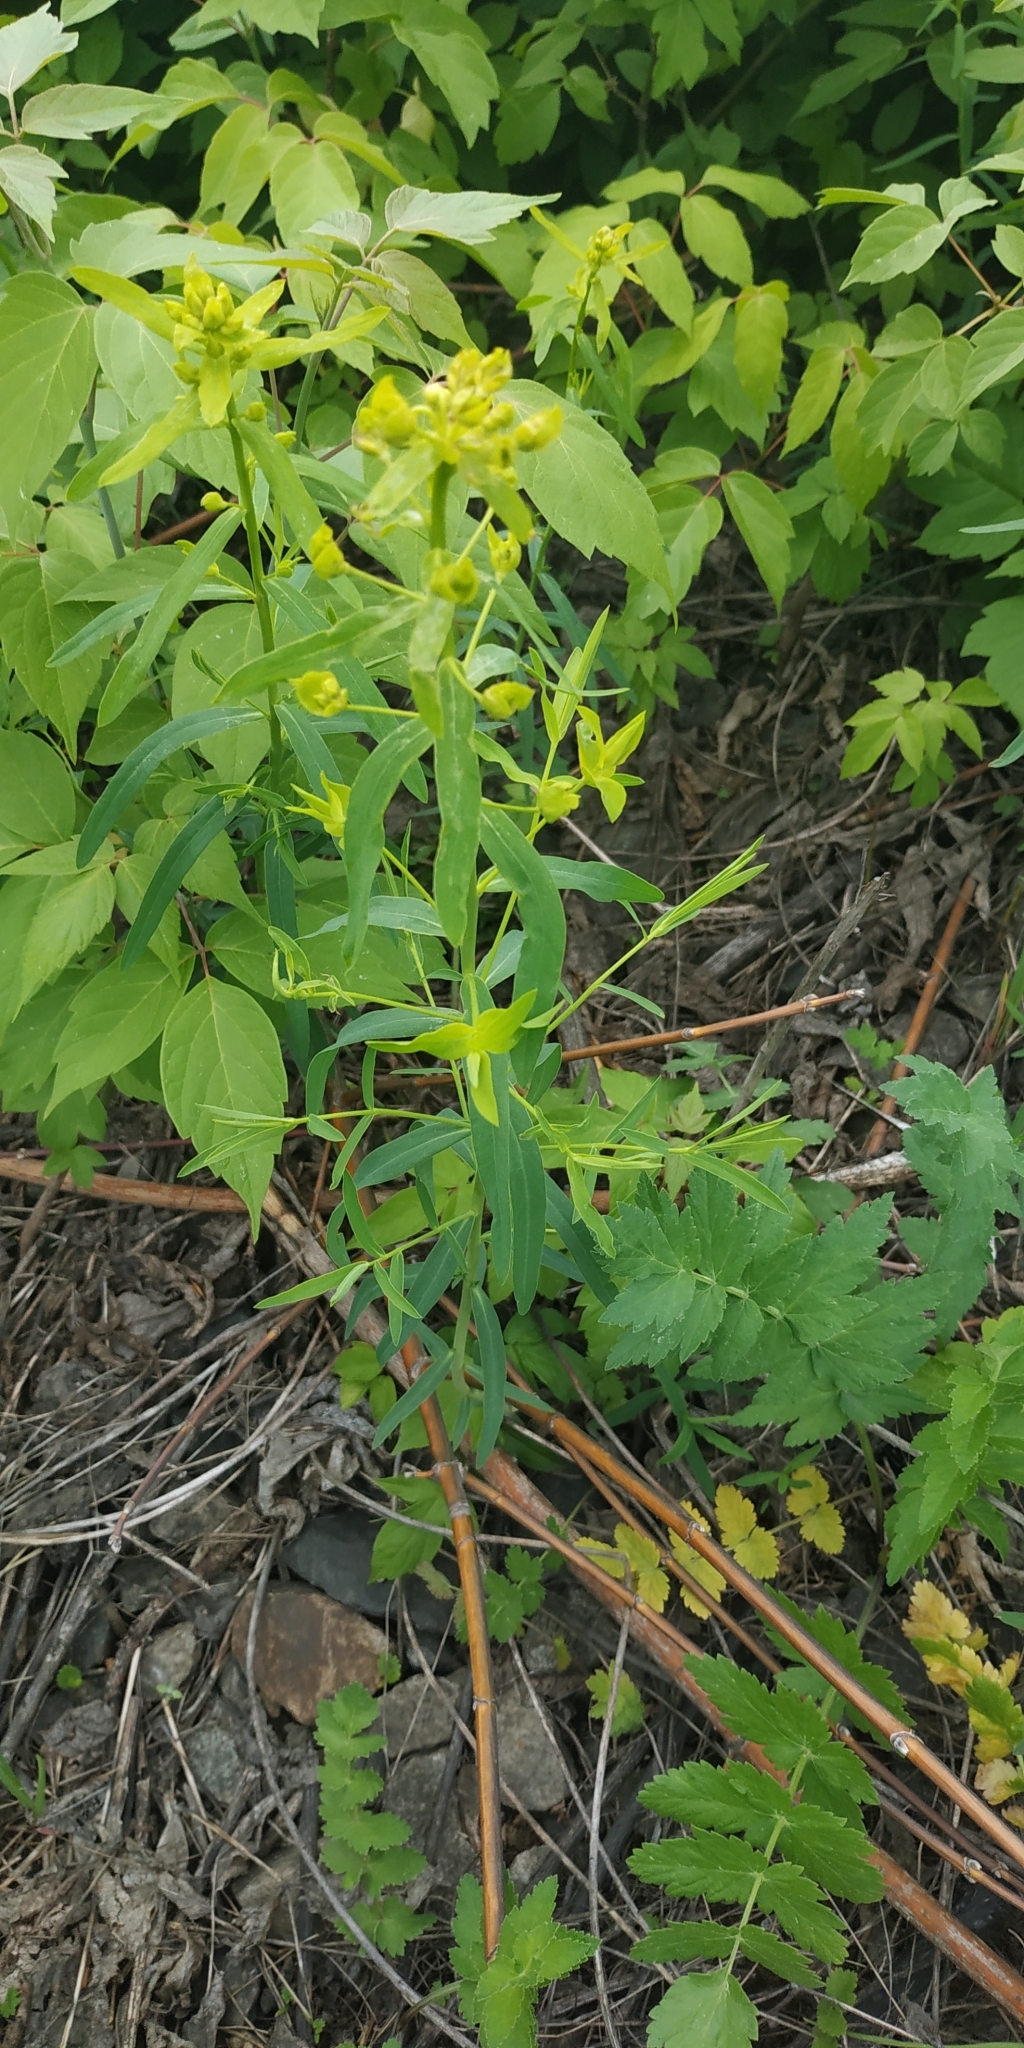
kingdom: Plantae
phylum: Tracheophyta
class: Magnoliopsida
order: Malpighiales
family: Euphorbiaceae
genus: Euphorbia
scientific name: Euphorbia virgata
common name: Leafy spurge
